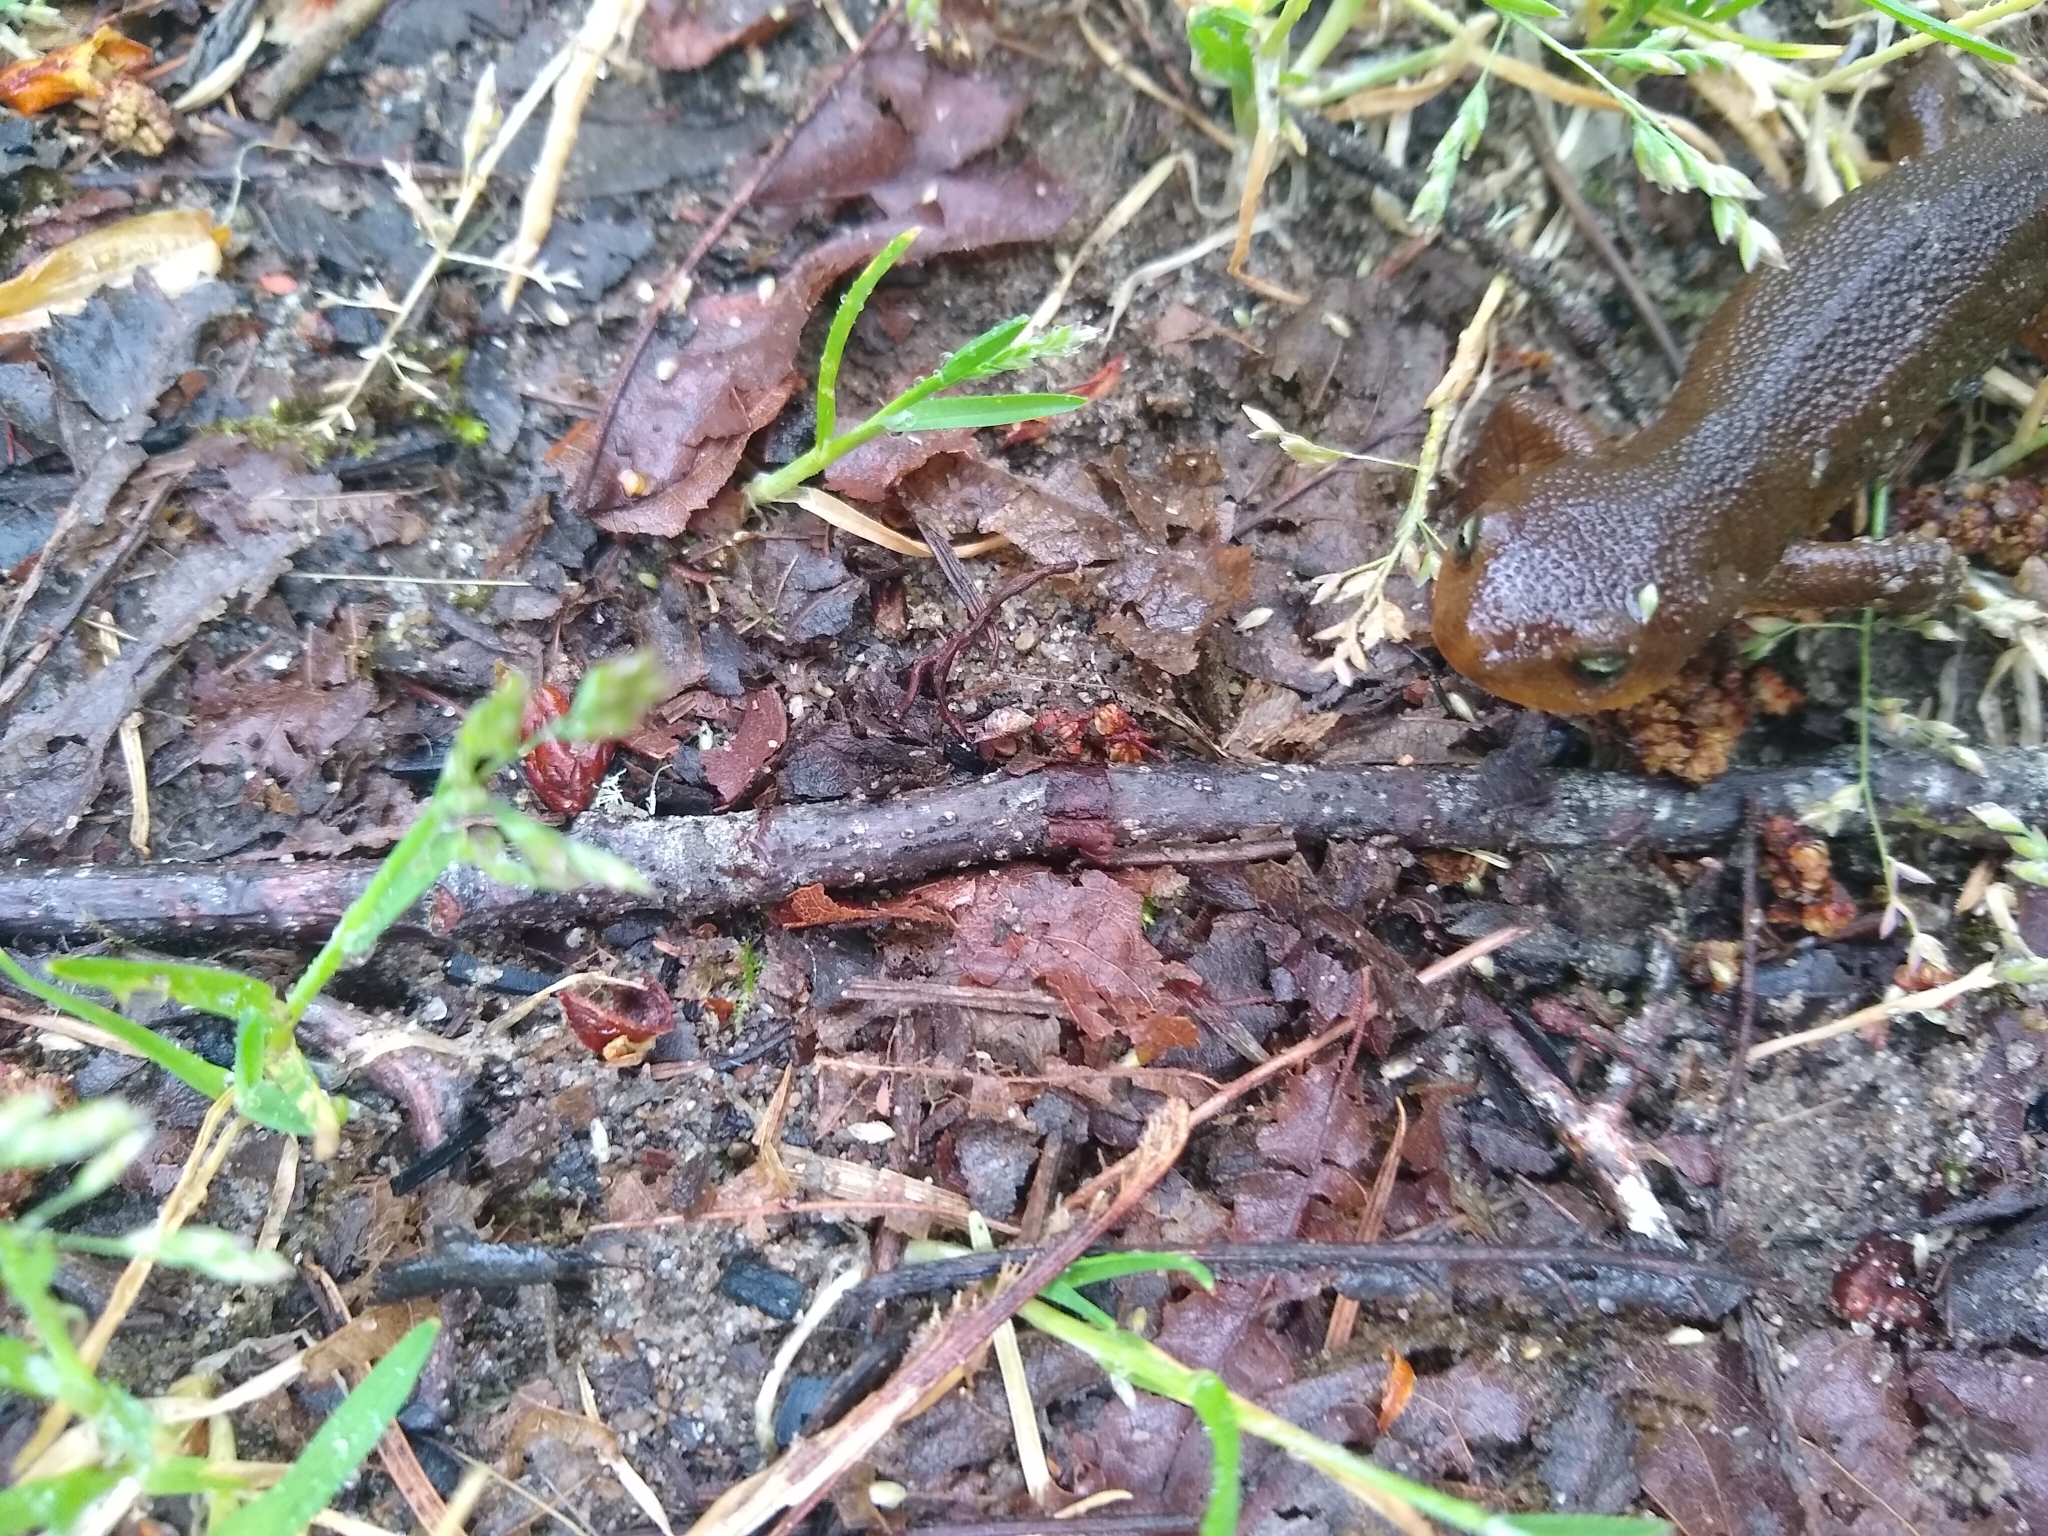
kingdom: Animalia
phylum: Chordata
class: Amphibia
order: Caudata
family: Salamandridae
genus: Taricha
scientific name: Taricha granulosa
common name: Roughskin newt
